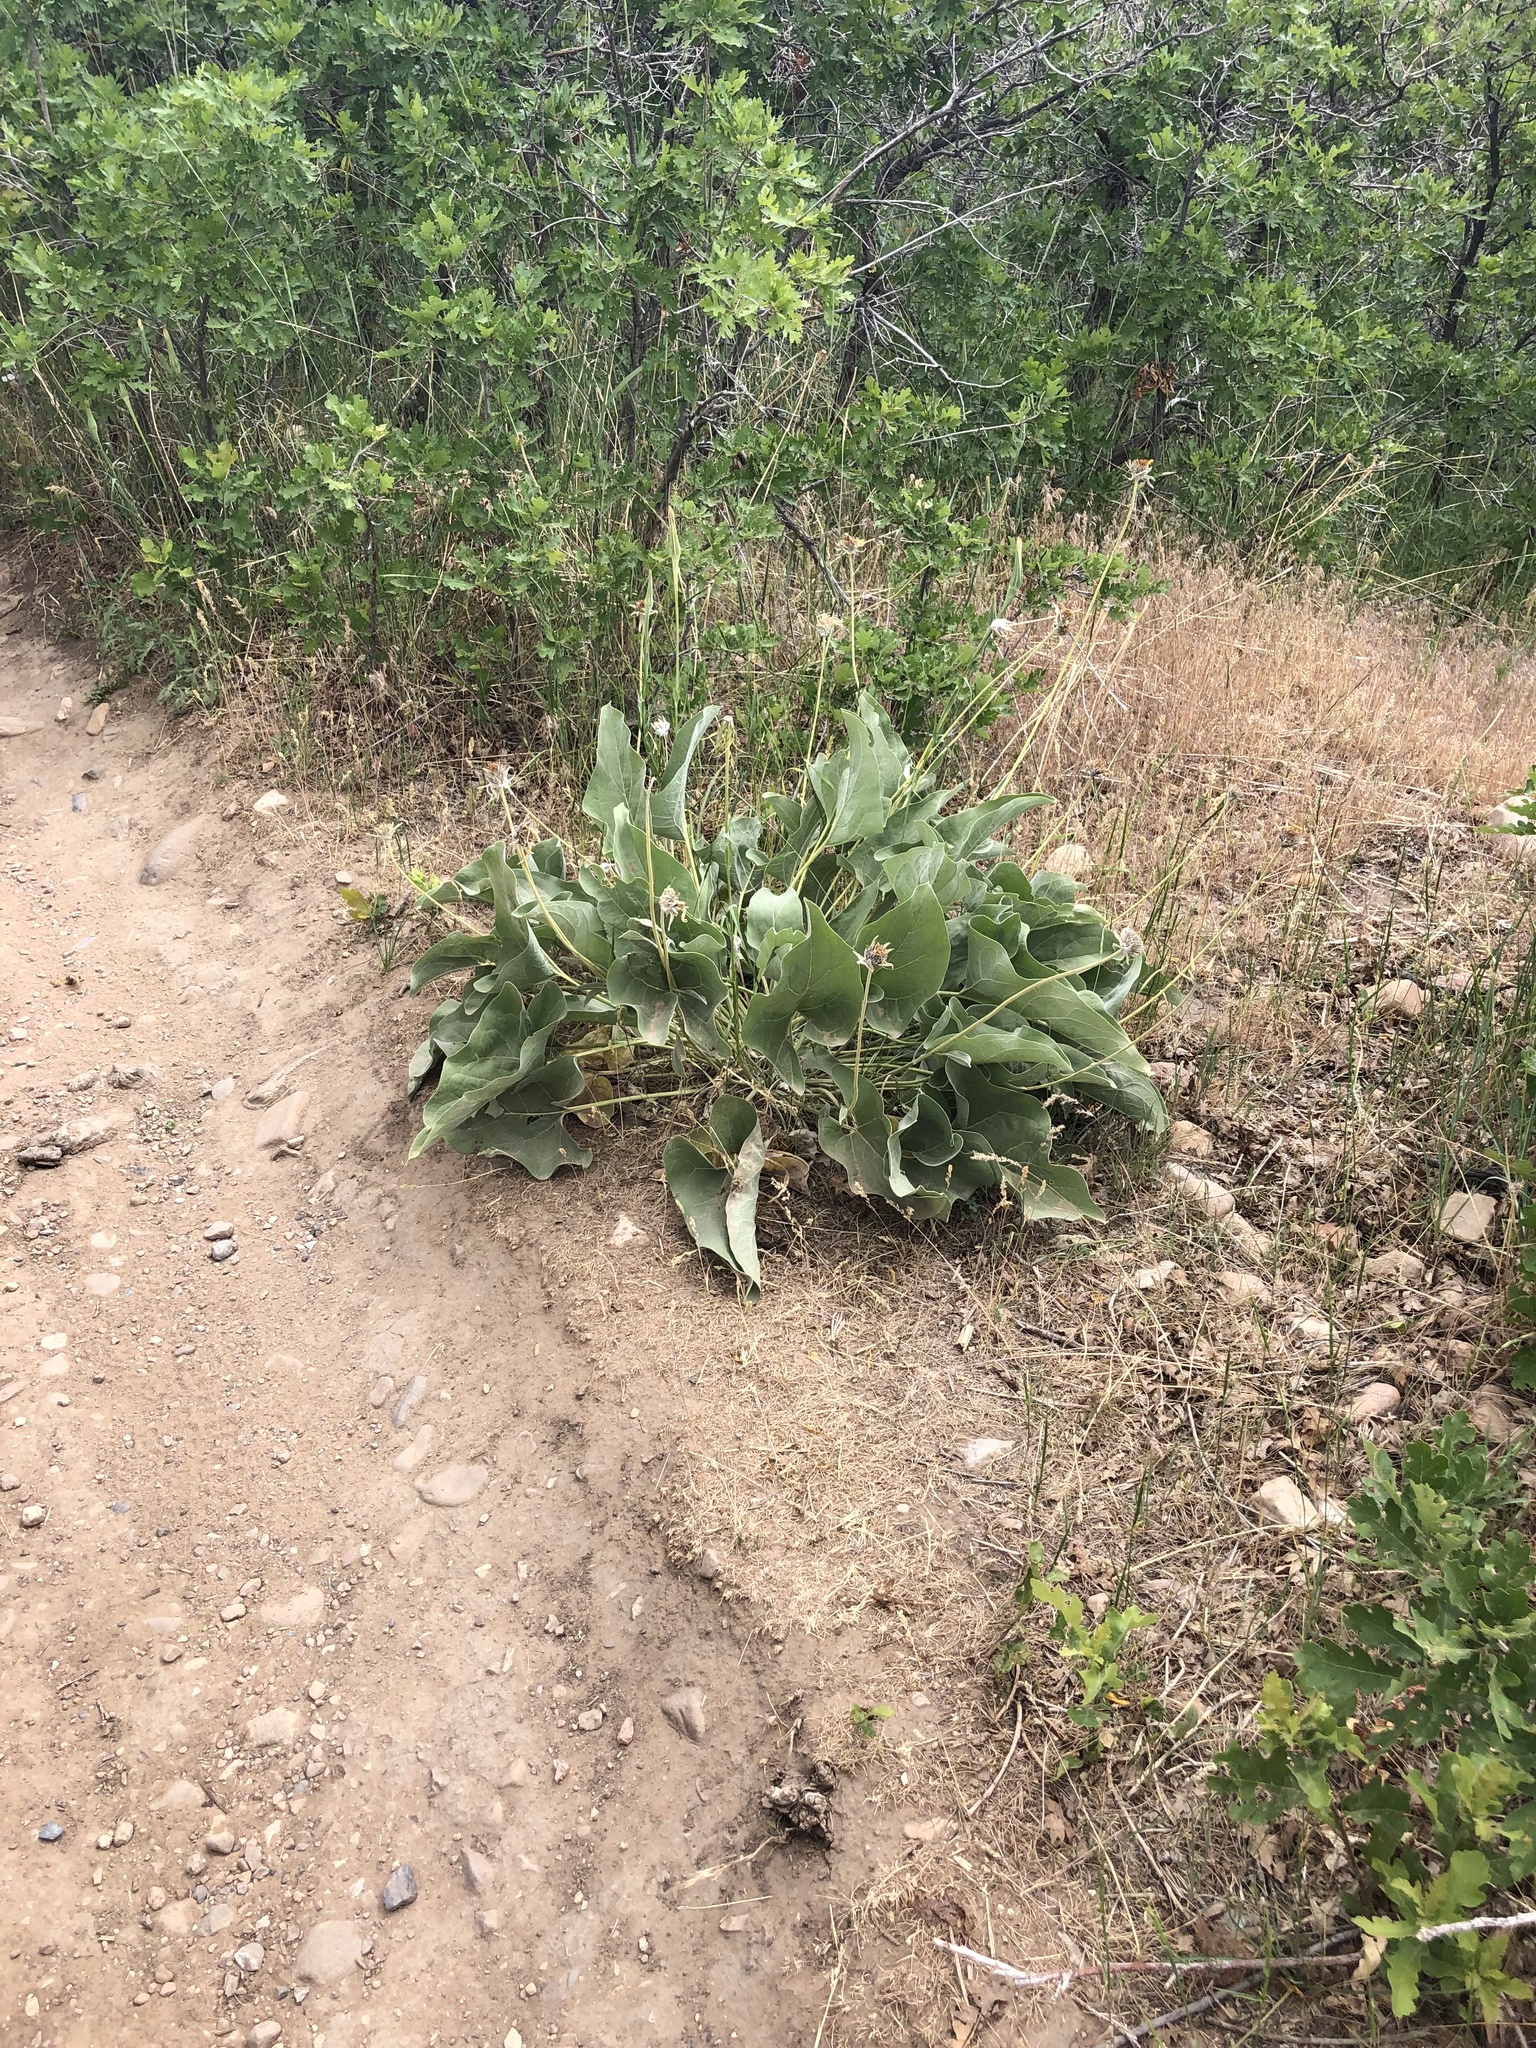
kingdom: Plantae
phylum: Tracheophyta
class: Magnoliopsida
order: Asterales
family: Asteraceae
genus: Wyethia
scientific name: Wyethia sagittata
